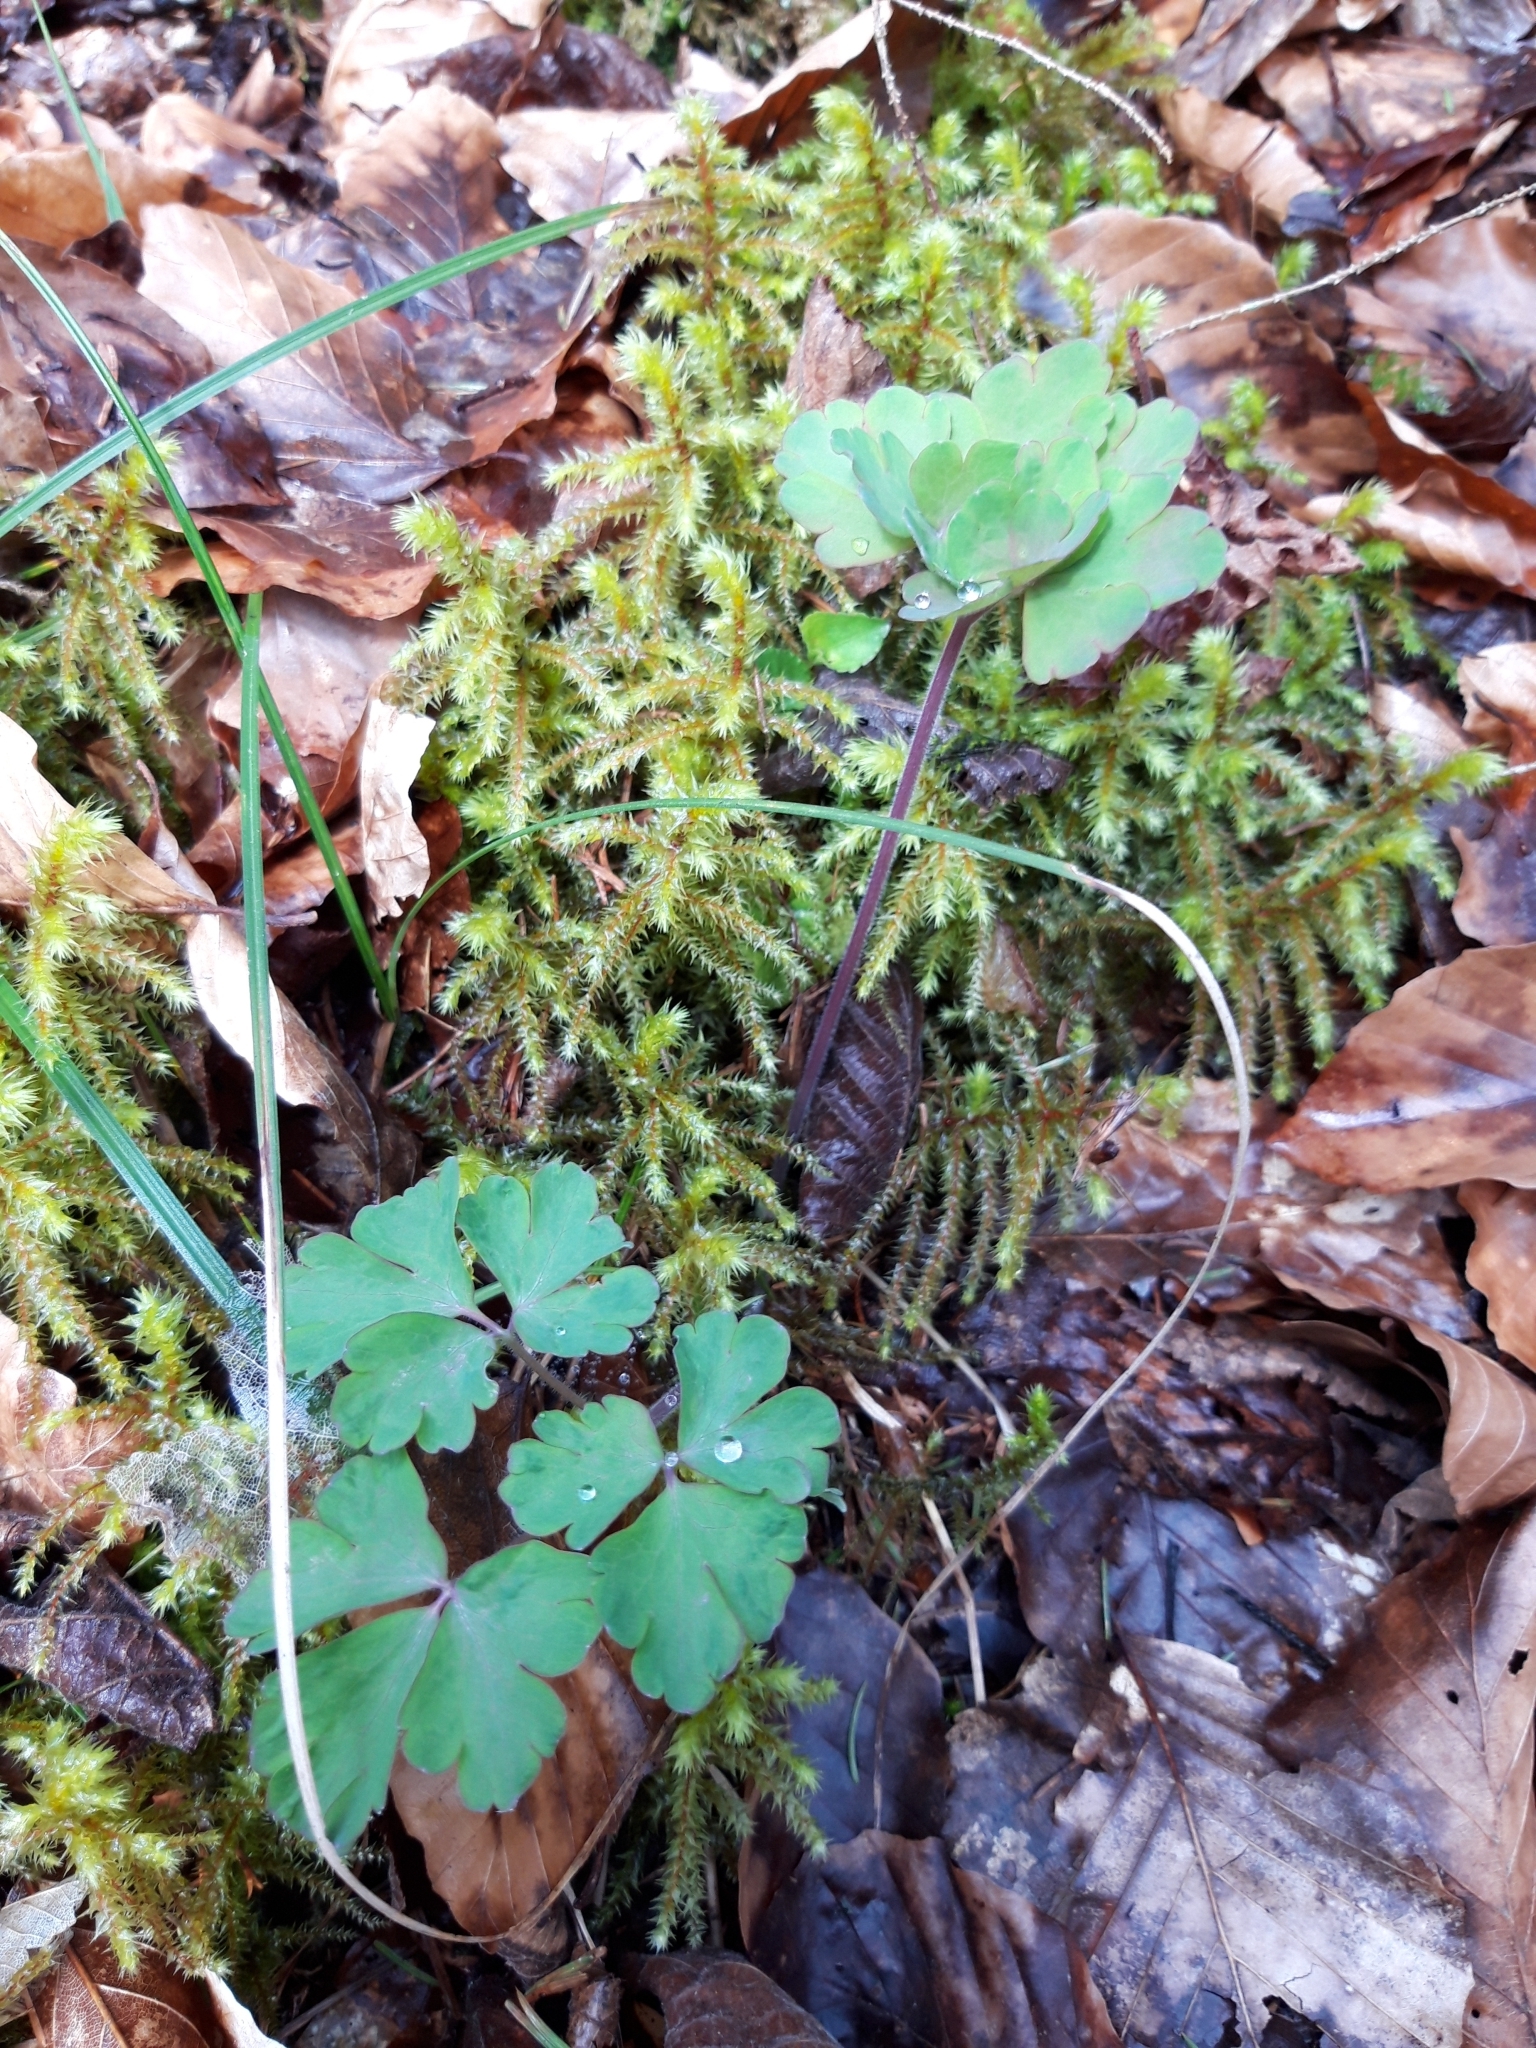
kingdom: Plantae
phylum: Tracheophyta
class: Magnoliopsida
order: Ranunculales
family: Ranunculaceae
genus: Aquilegia
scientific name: Aquilegia vulgaris
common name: Columbine
